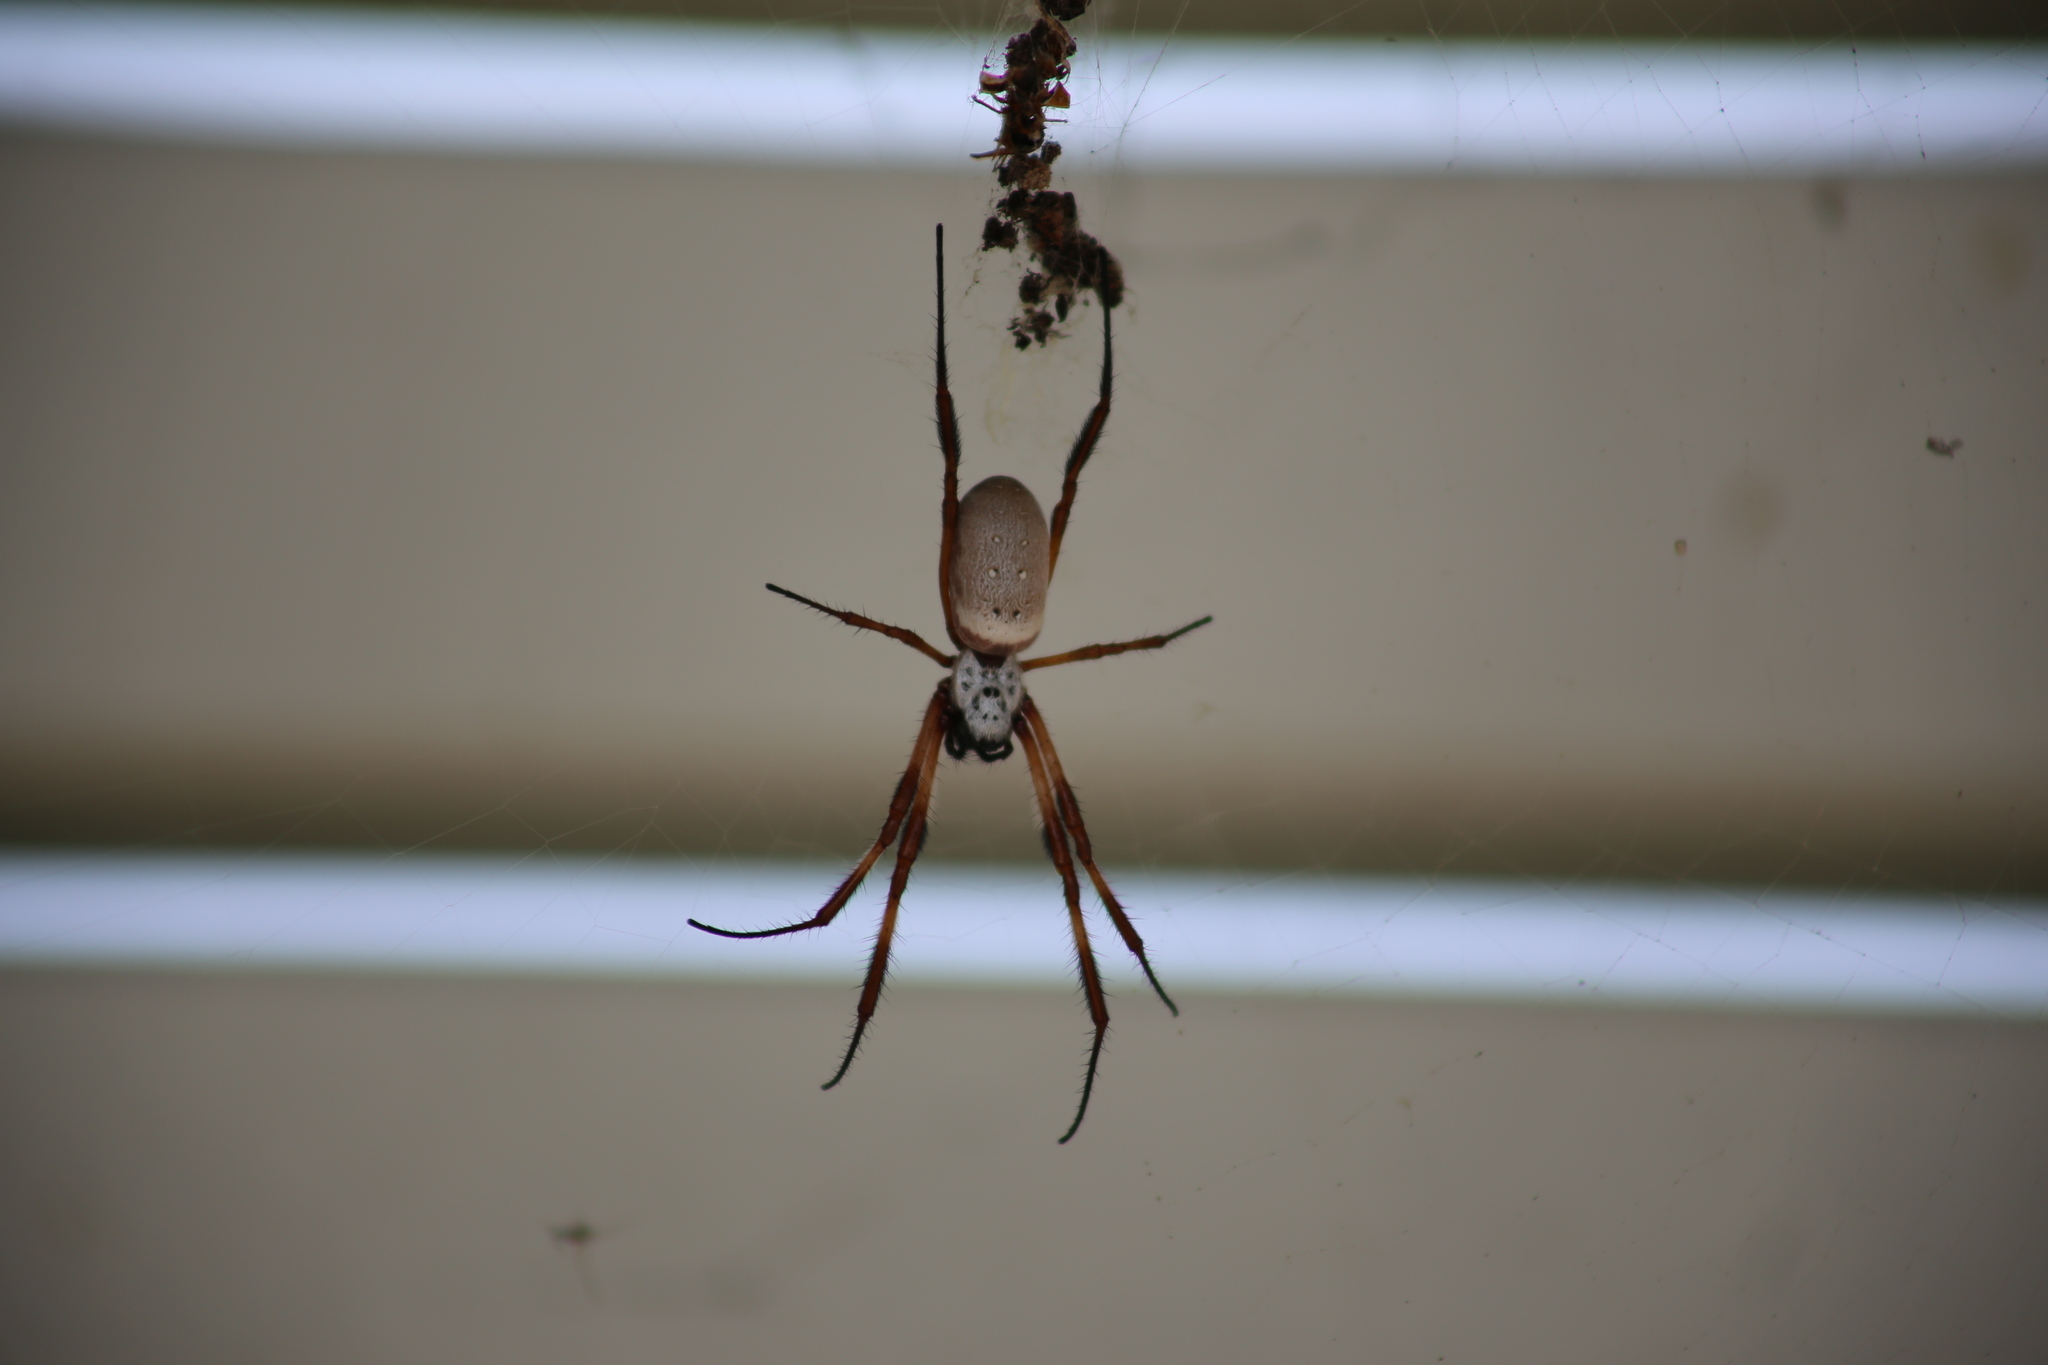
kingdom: Animalia
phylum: Arthropoda
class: Arachnida
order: Araneae
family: Araneidae
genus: Trichonephila
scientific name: Trichonephila edulis
